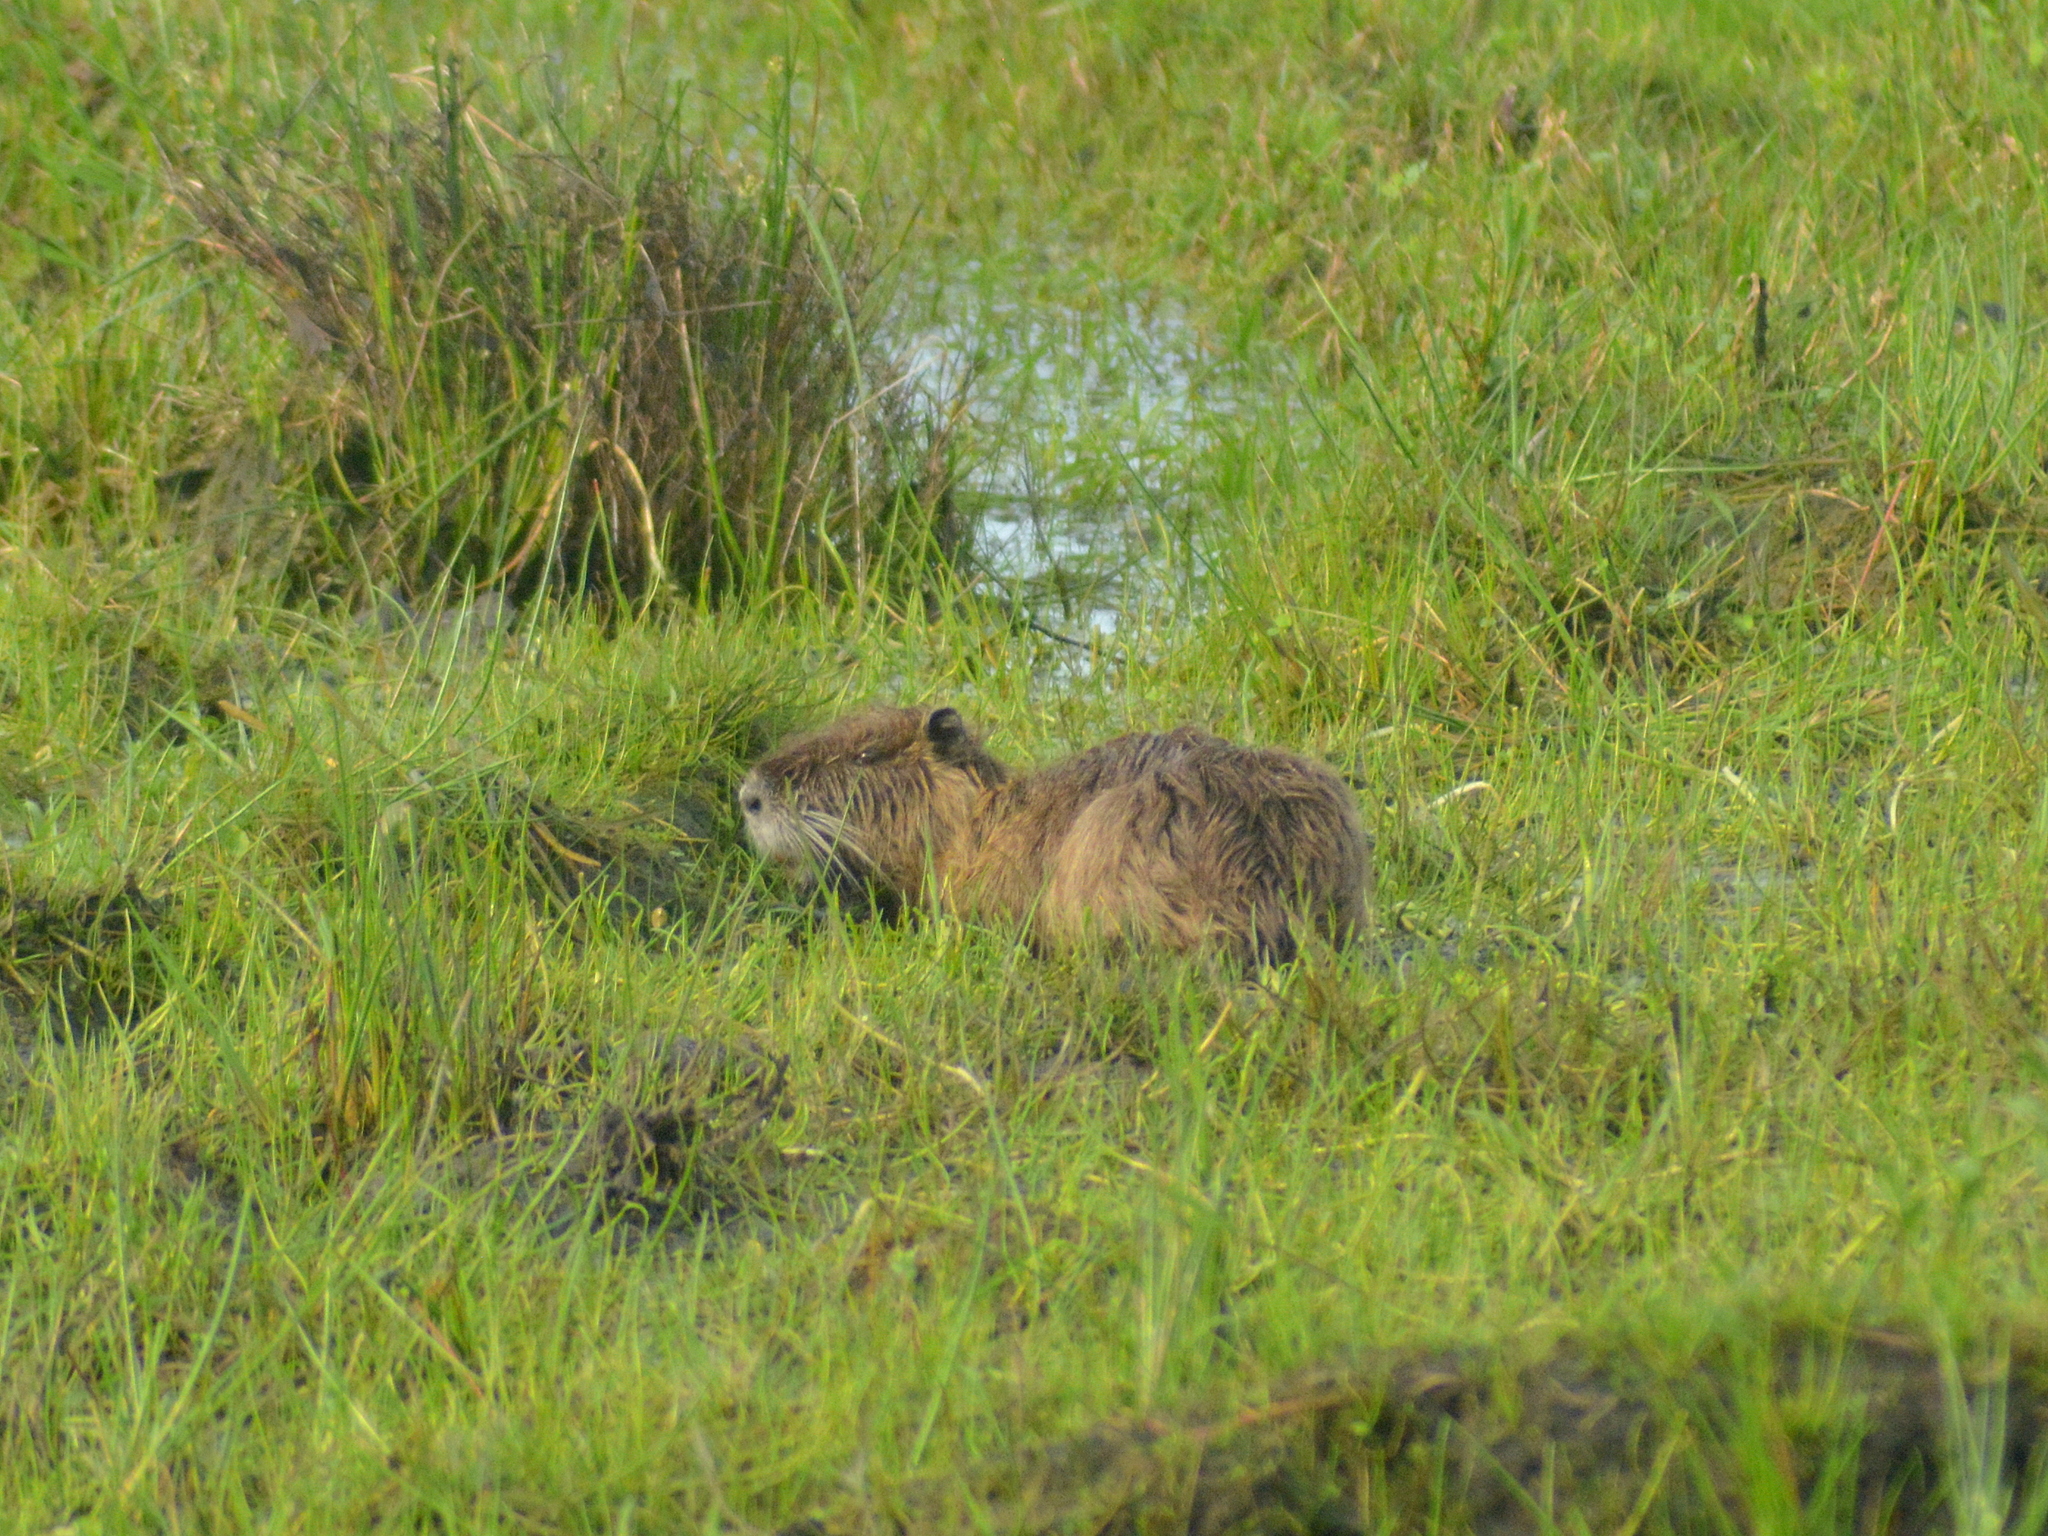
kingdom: Animalia
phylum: Chordata
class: Mammalia
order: Rodentia
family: Myocastoridae
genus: Myocastor
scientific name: Myocastor coypus
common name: Coypu
